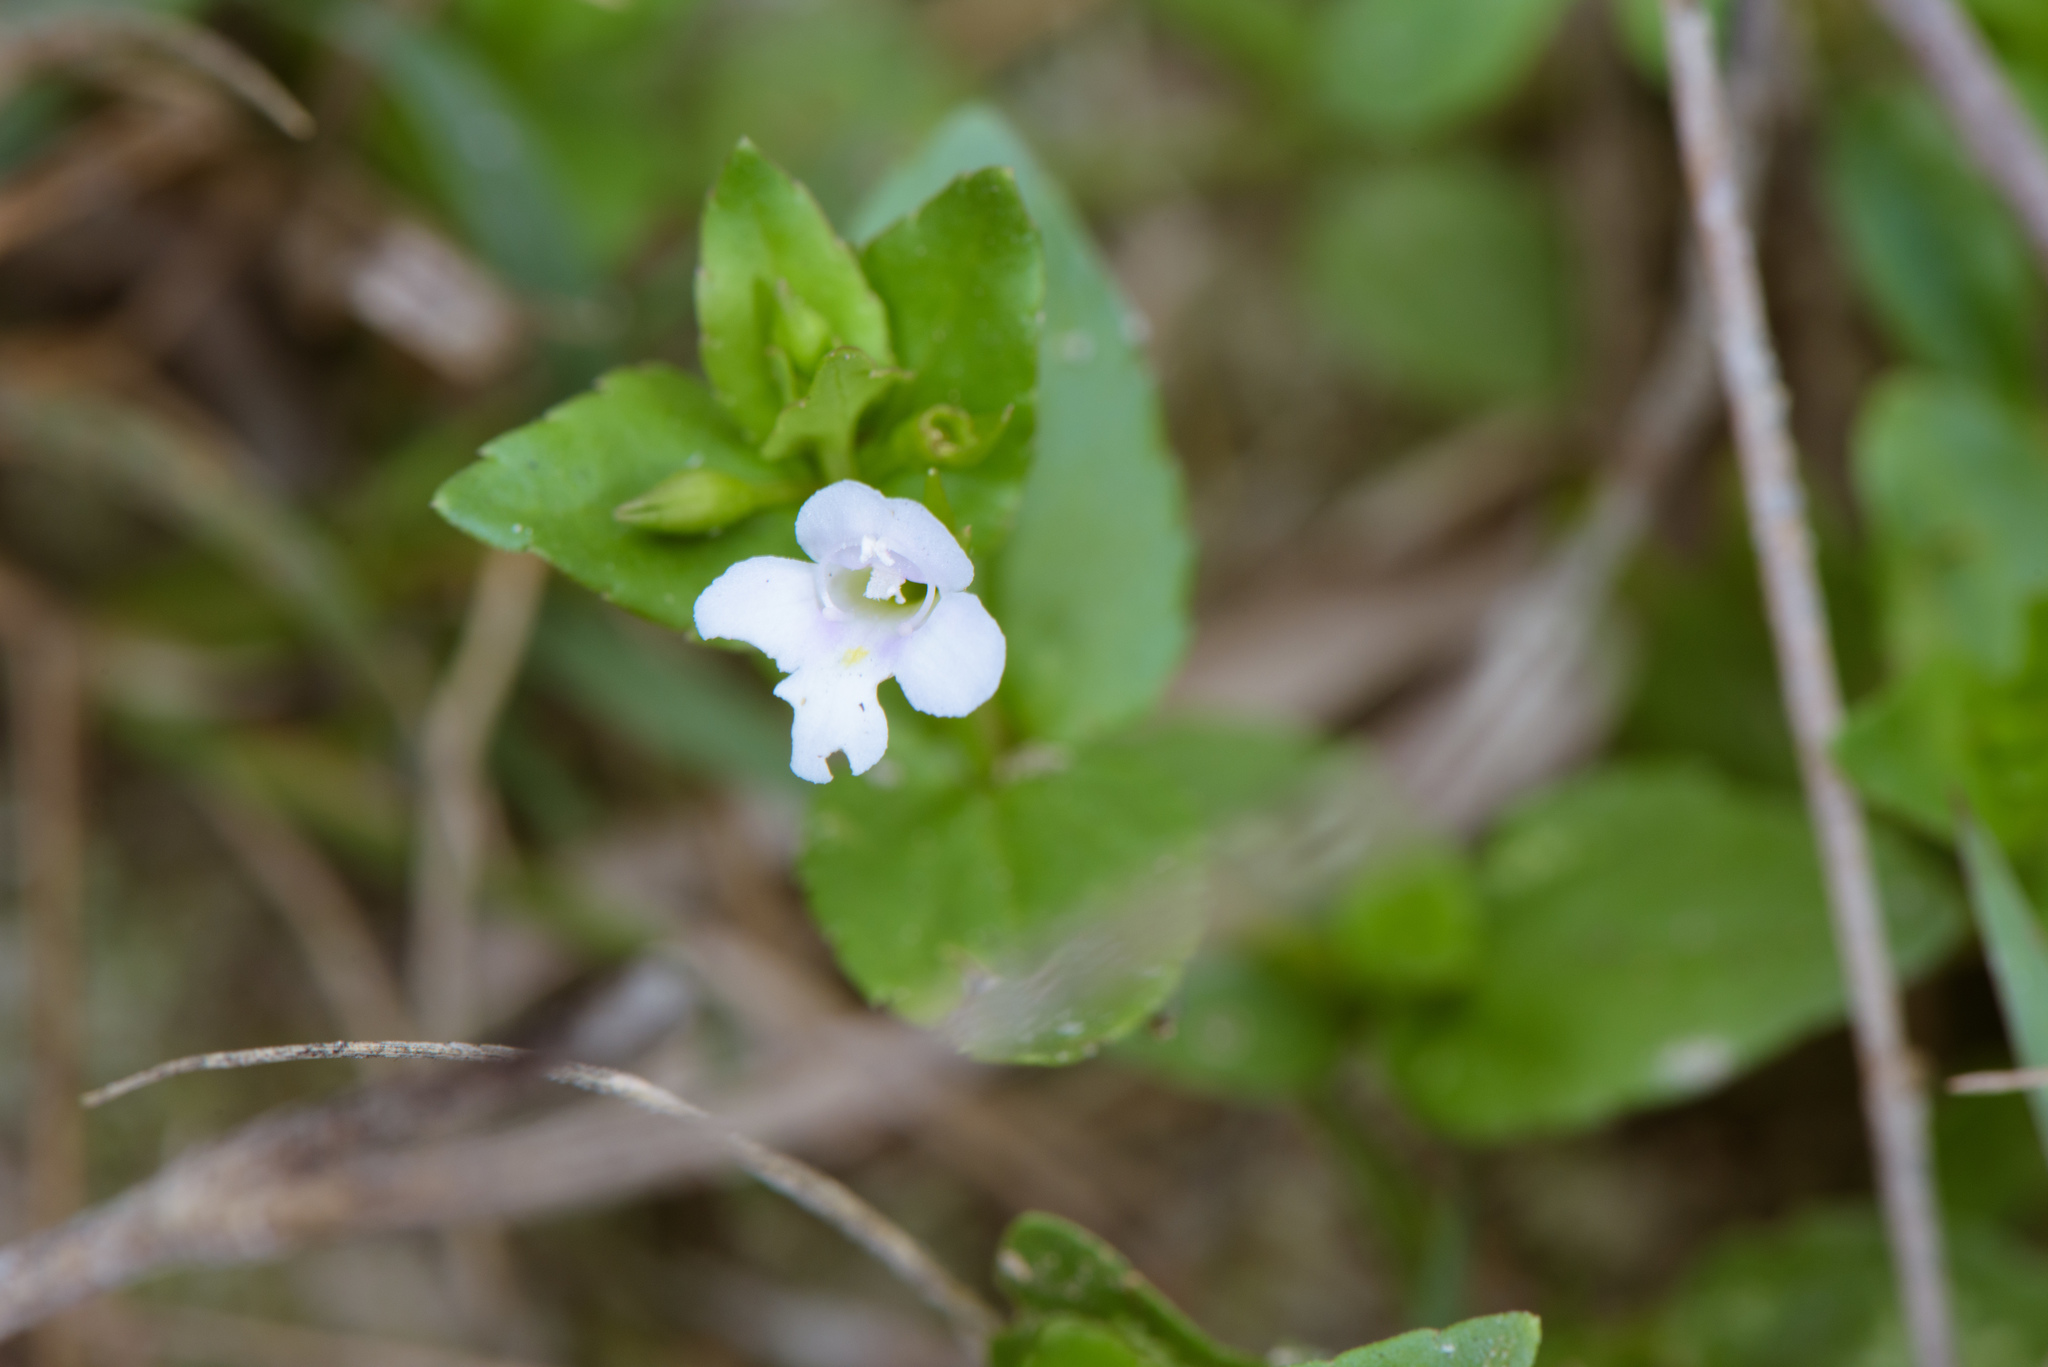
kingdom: Plantae
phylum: Tracheophyta
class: Magnoliopsida
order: Lamiales
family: Linderniaceae
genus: Torenia
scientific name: Torenia anagallis
